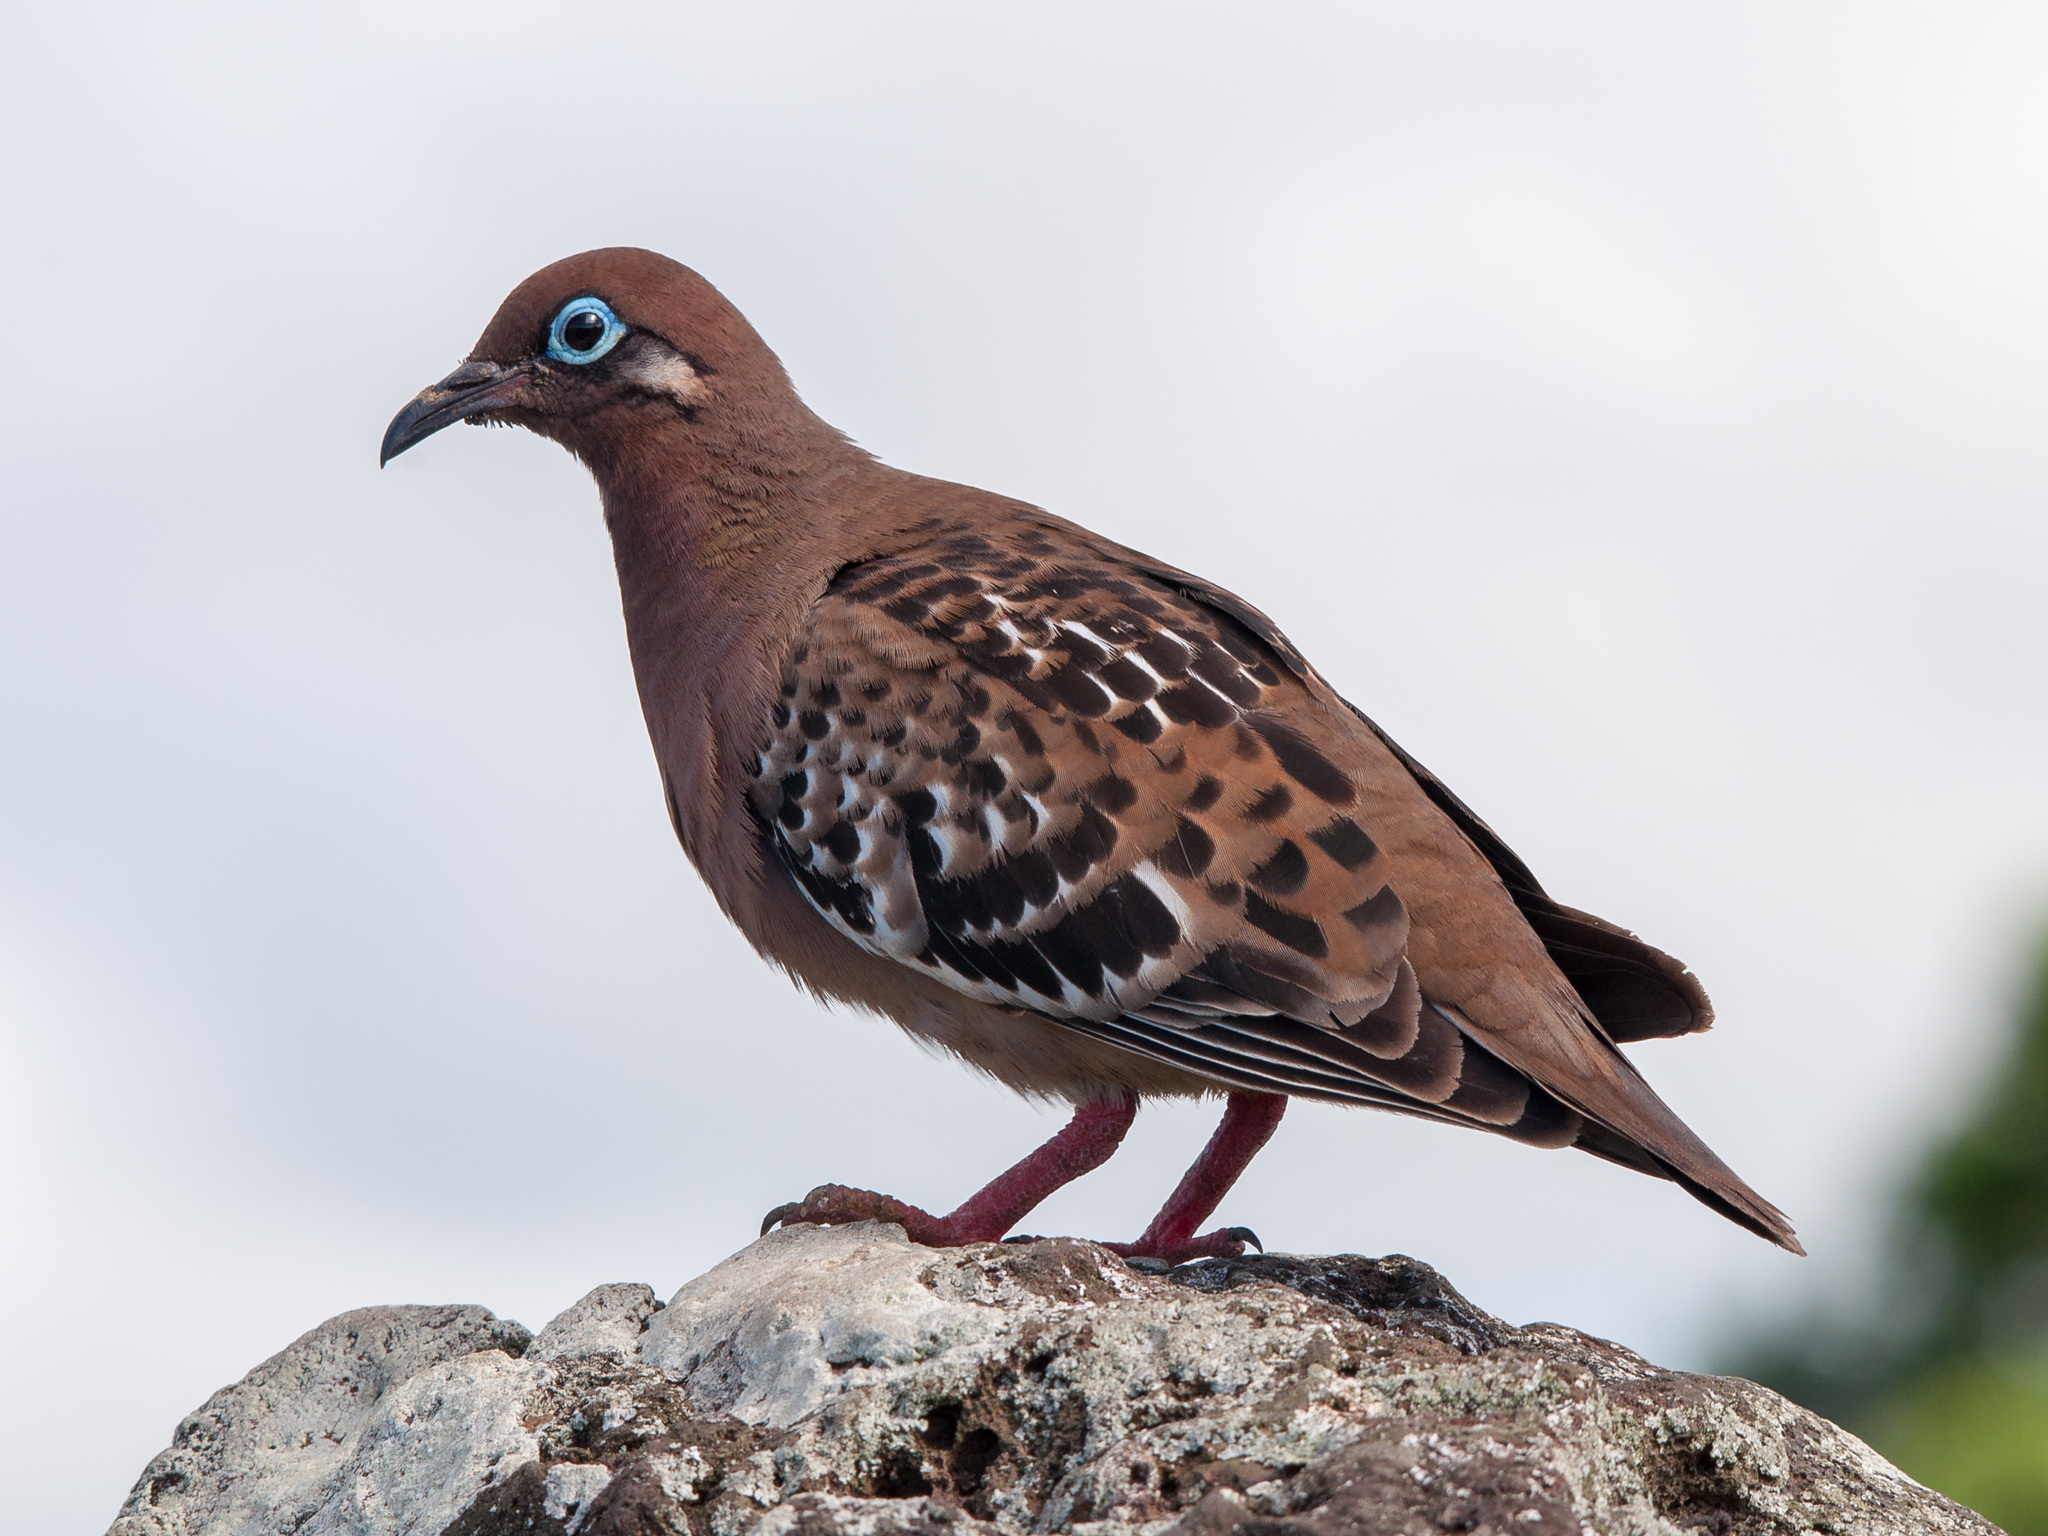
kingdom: Animalia
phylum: Chordata
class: Aves
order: Columbiformes
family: Columbidae
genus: Zenaida
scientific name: Zenaida galapagoensis
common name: Galapagos dove
